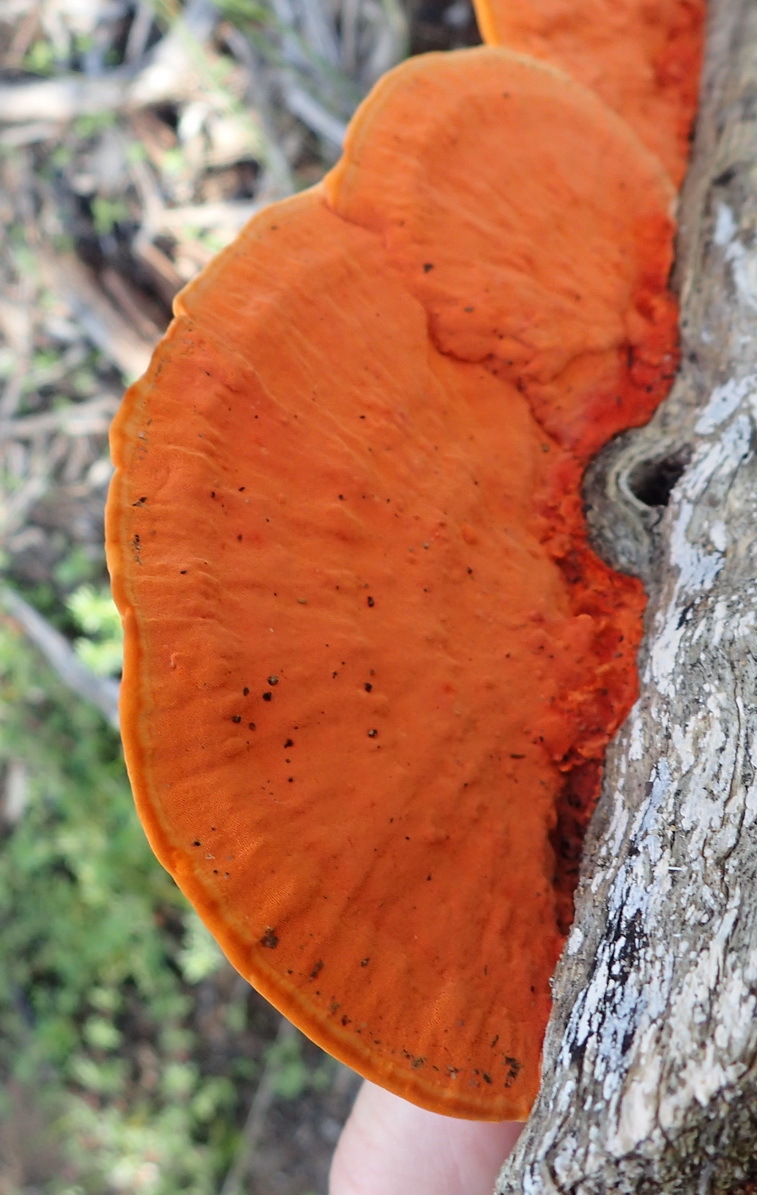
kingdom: Fungi
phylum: Basidiomycota
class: Agaricomycetes
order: Polyporales
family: Polyporaceae
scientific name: Polyporaceae
